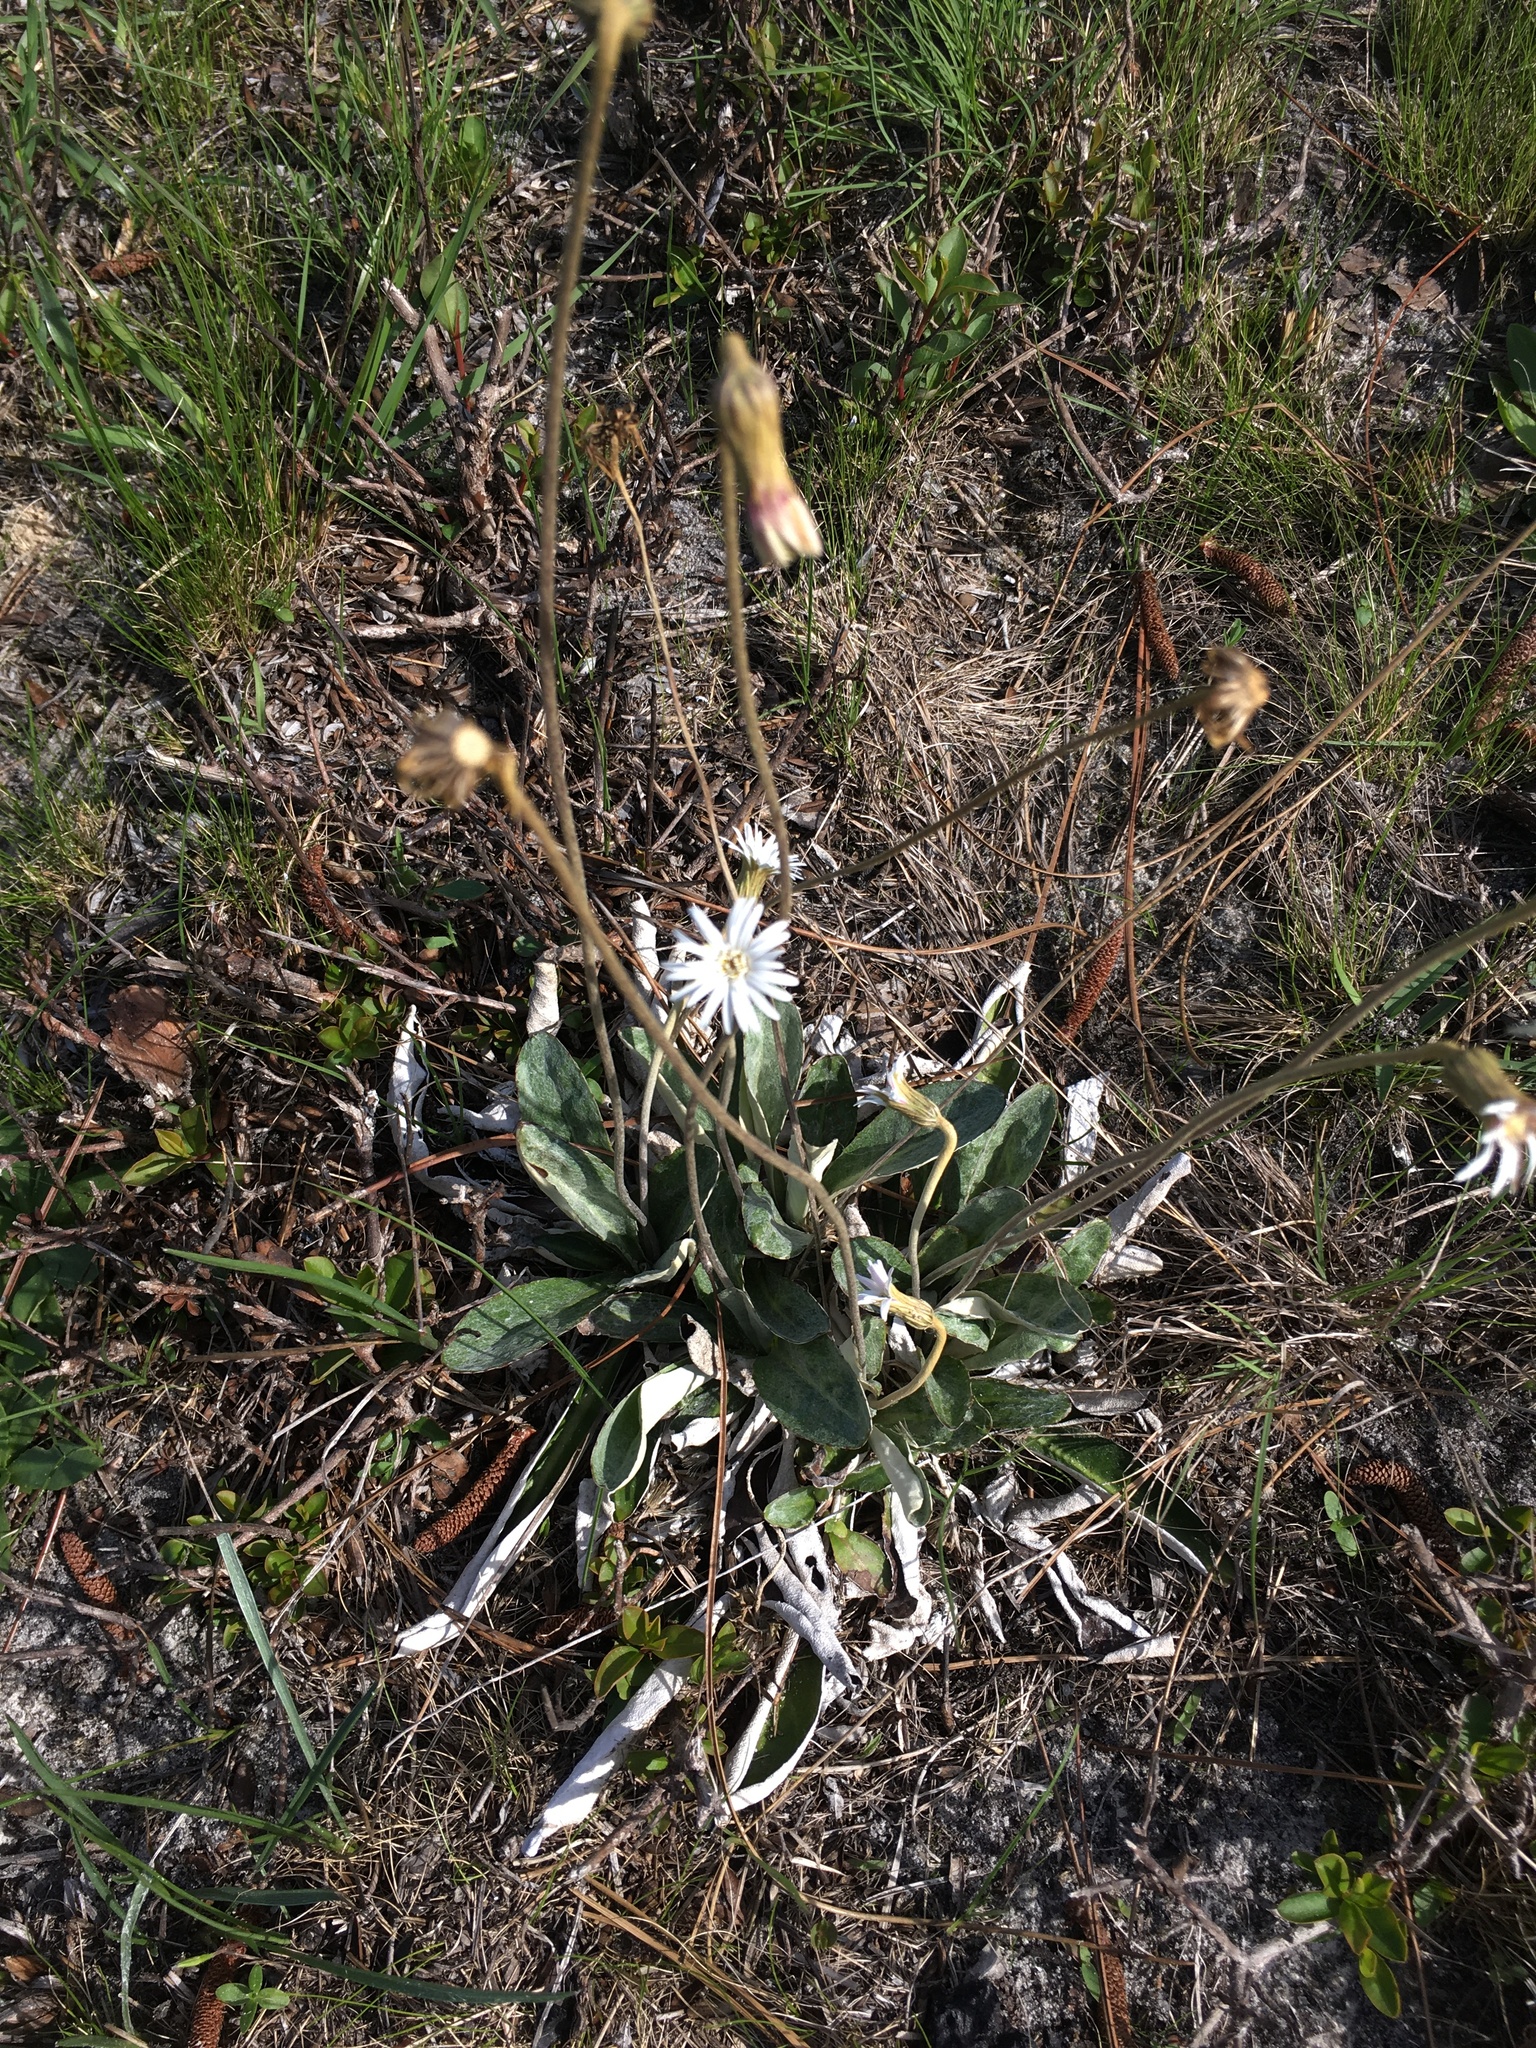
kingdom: Plantae
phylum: Tracheophyta
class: Magnoliopsida
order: Asterales
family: Asteraceae
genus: Chaptalia
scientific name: Chaptalia tomentosa
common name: Woolly sunbonnet
